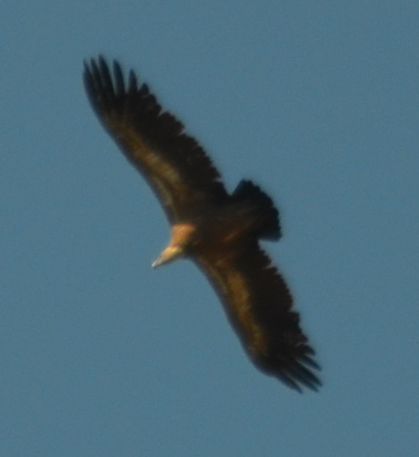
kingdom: Animalia
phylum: Chordata
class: Aves
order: Accipitriformes
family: Accipitridae
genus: Gyps
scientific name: Gyps fulvus
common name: Griffon vulture
